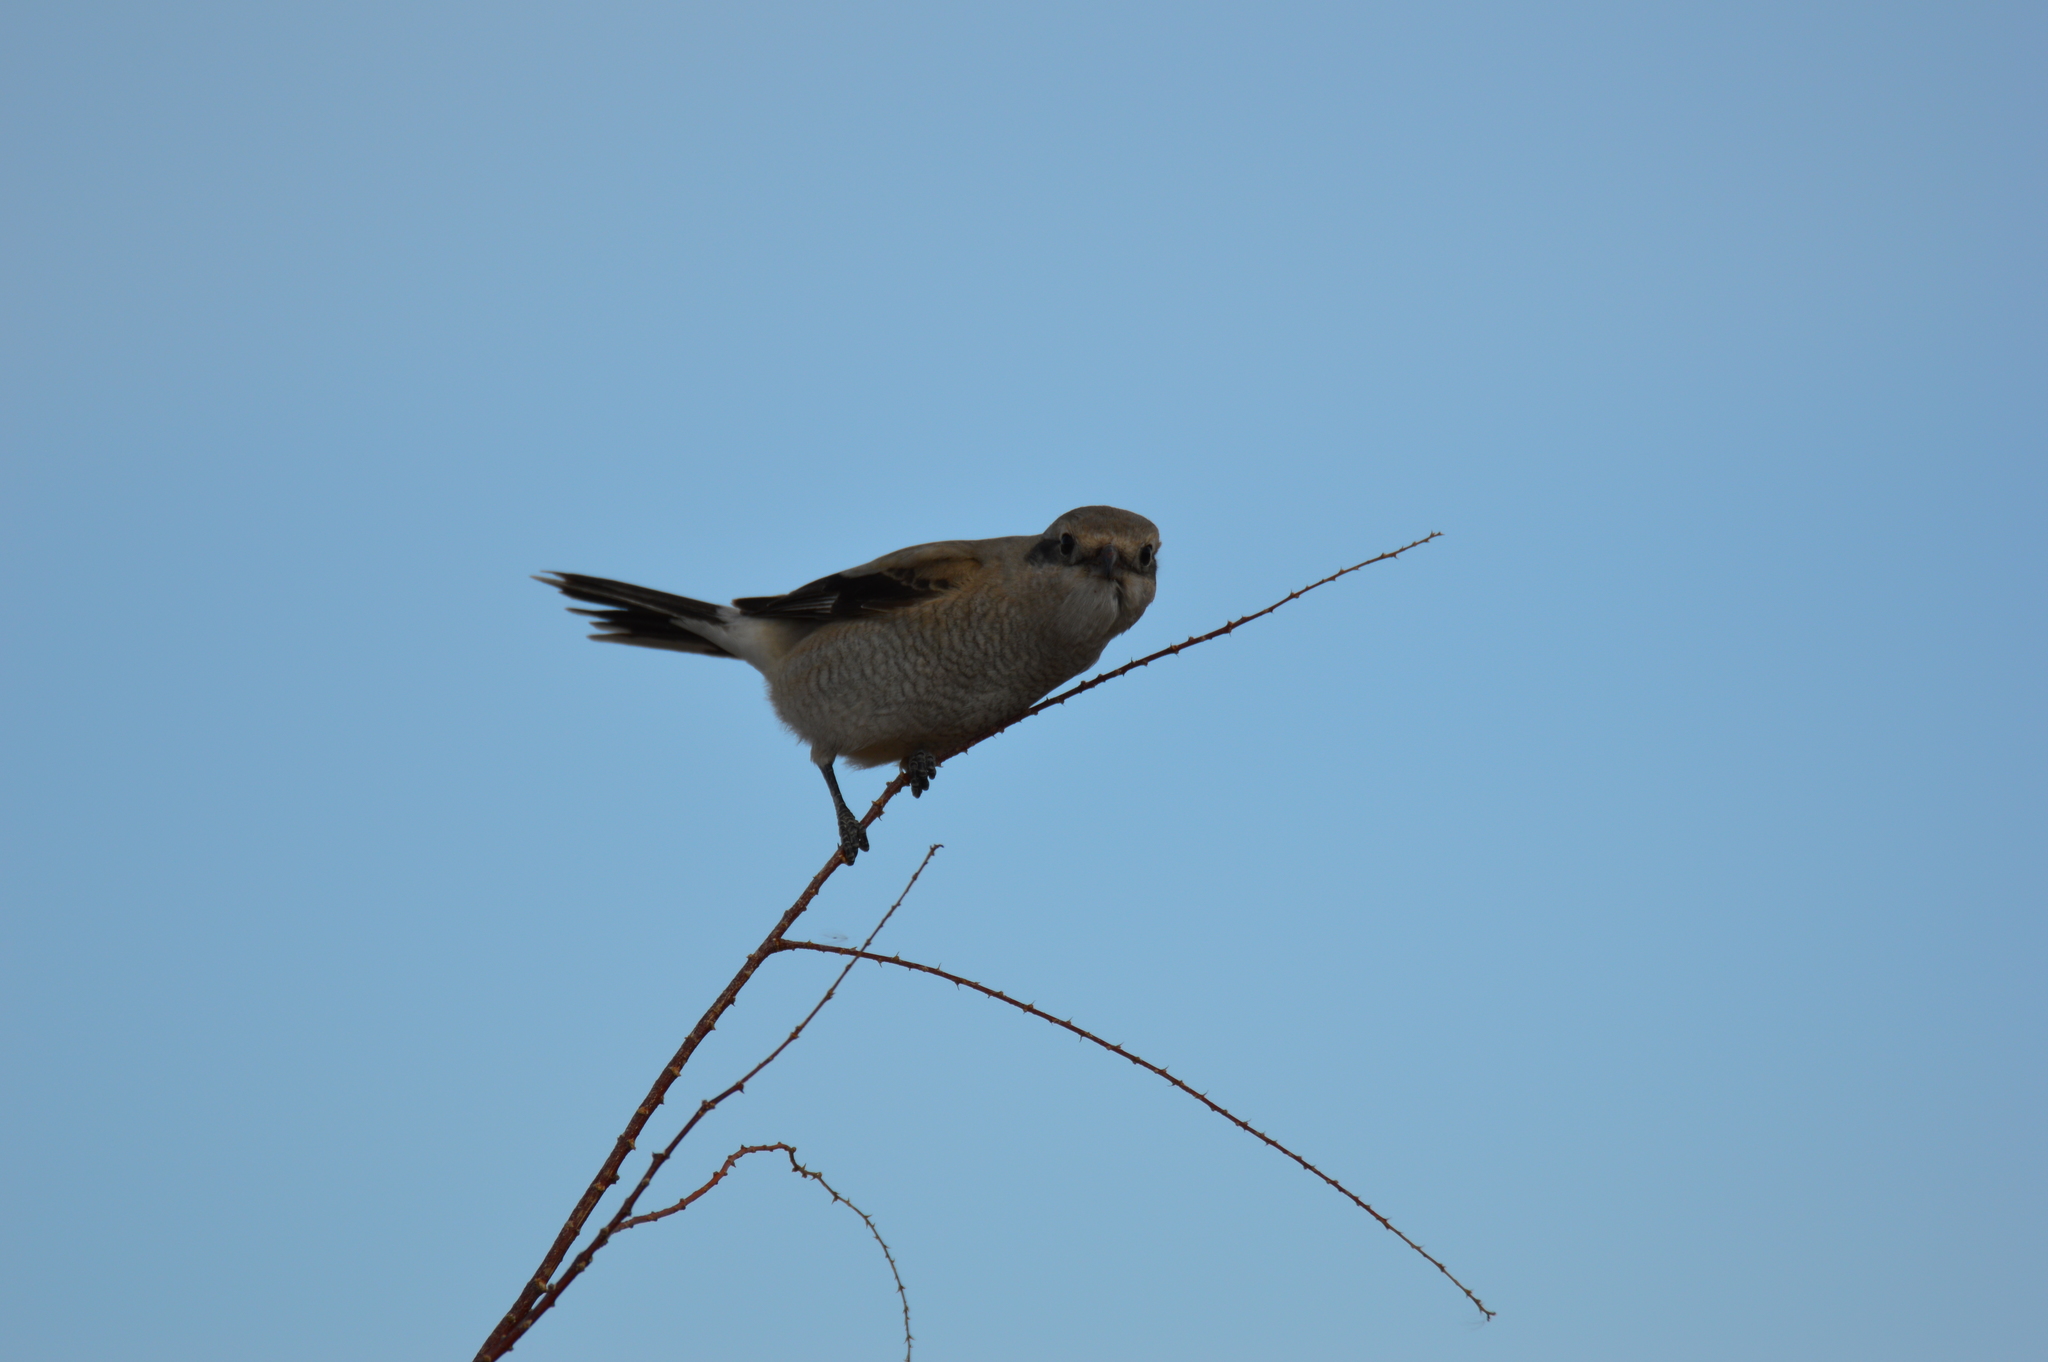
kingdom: Animalia
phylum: Chordata
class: Aves
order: Passeriformes
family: Laniidae
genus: Lanius
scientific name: Lanius borealis
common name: Northern shrike
